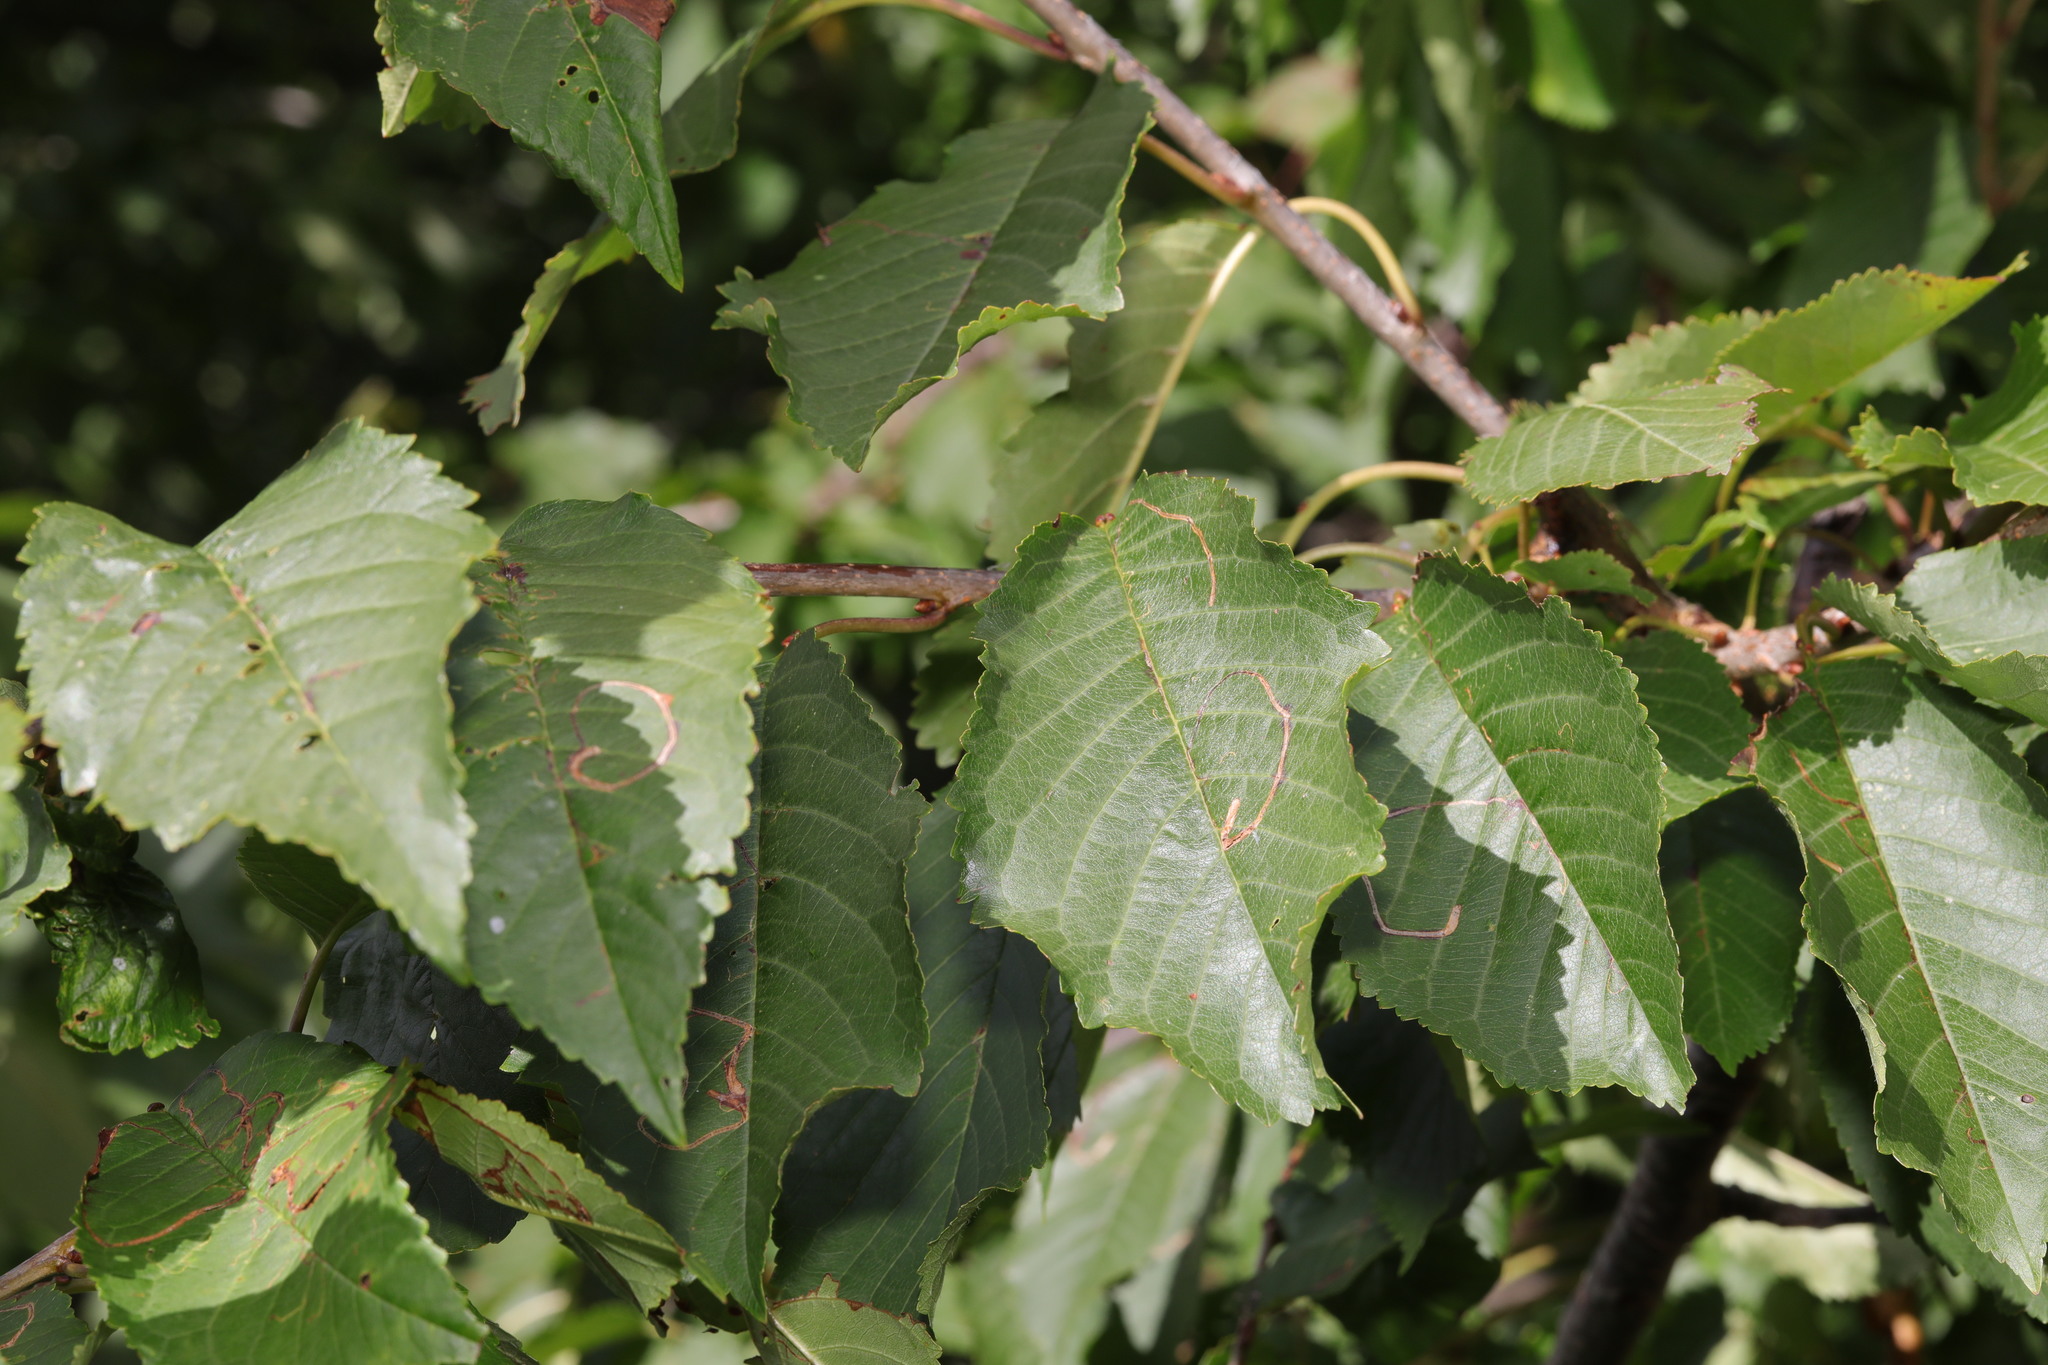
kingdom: Plantae
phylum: Tracheophyta
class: Magnoliopsida
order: Rosales
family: Rosaceae
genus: Prunus
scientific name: Prunus avium
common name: Sweet cherry
